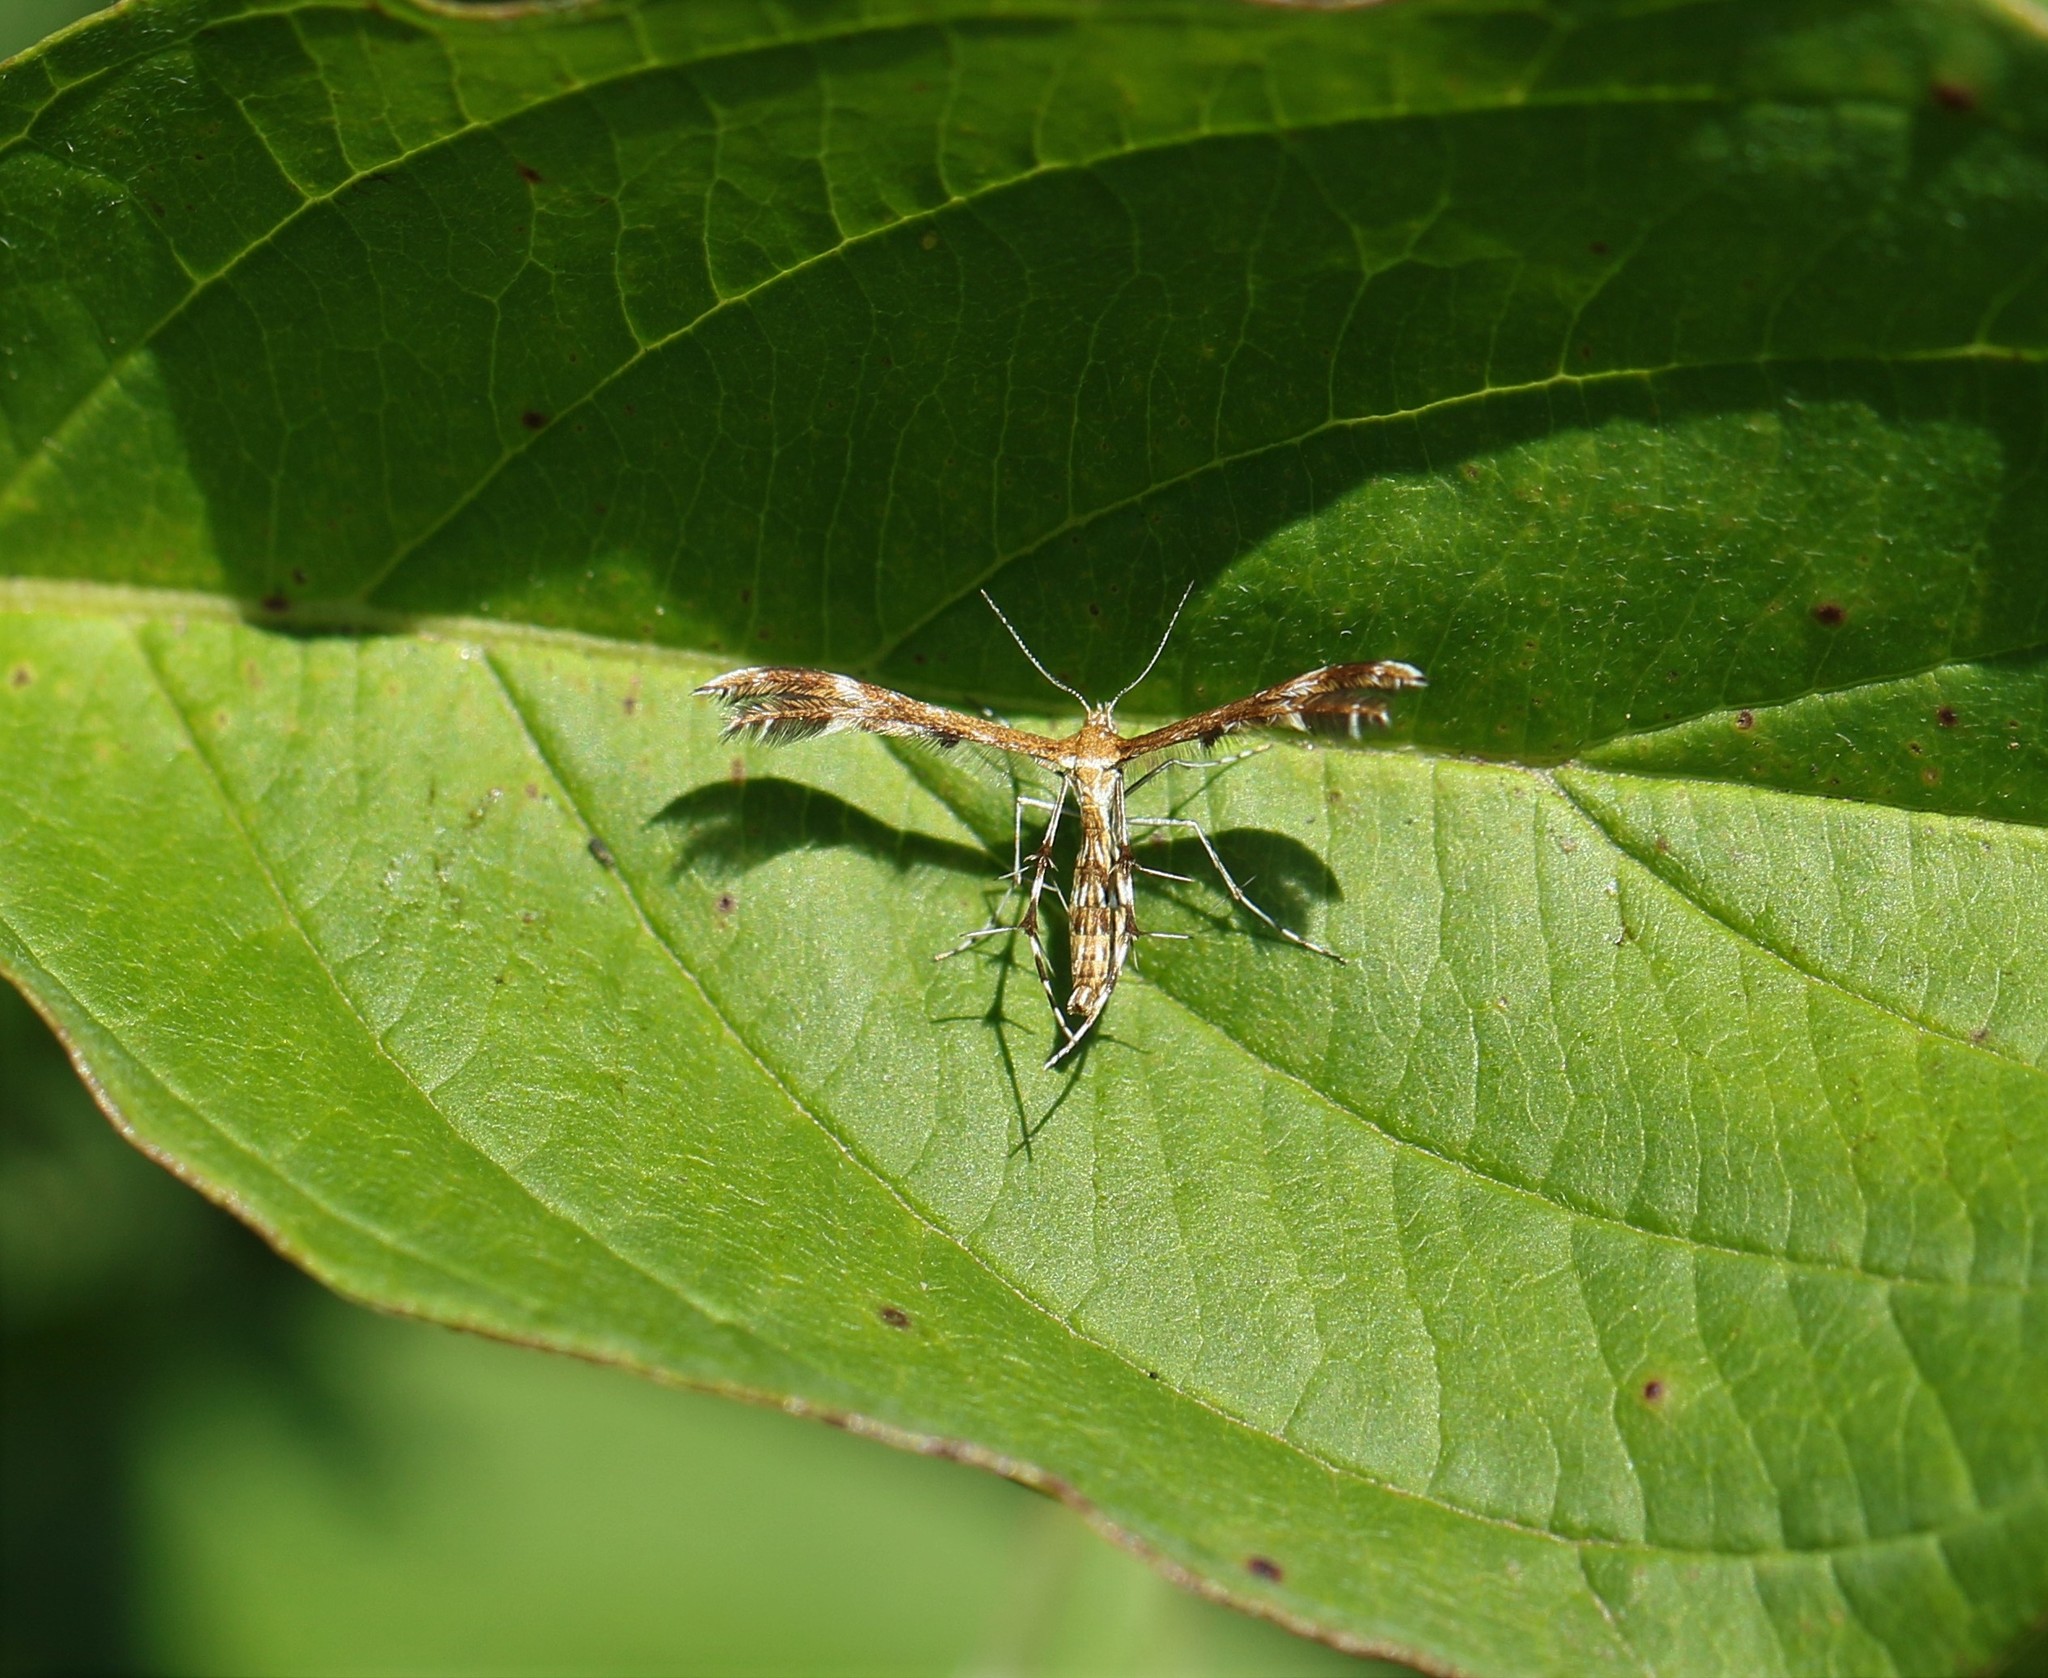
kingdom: Animalia
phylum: Arthropoda
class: Insecta
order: Lepidoptera
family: Pterophoridae
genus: Dejongia
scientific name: Dejongia lobidactylus
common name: Lobed plume moth
